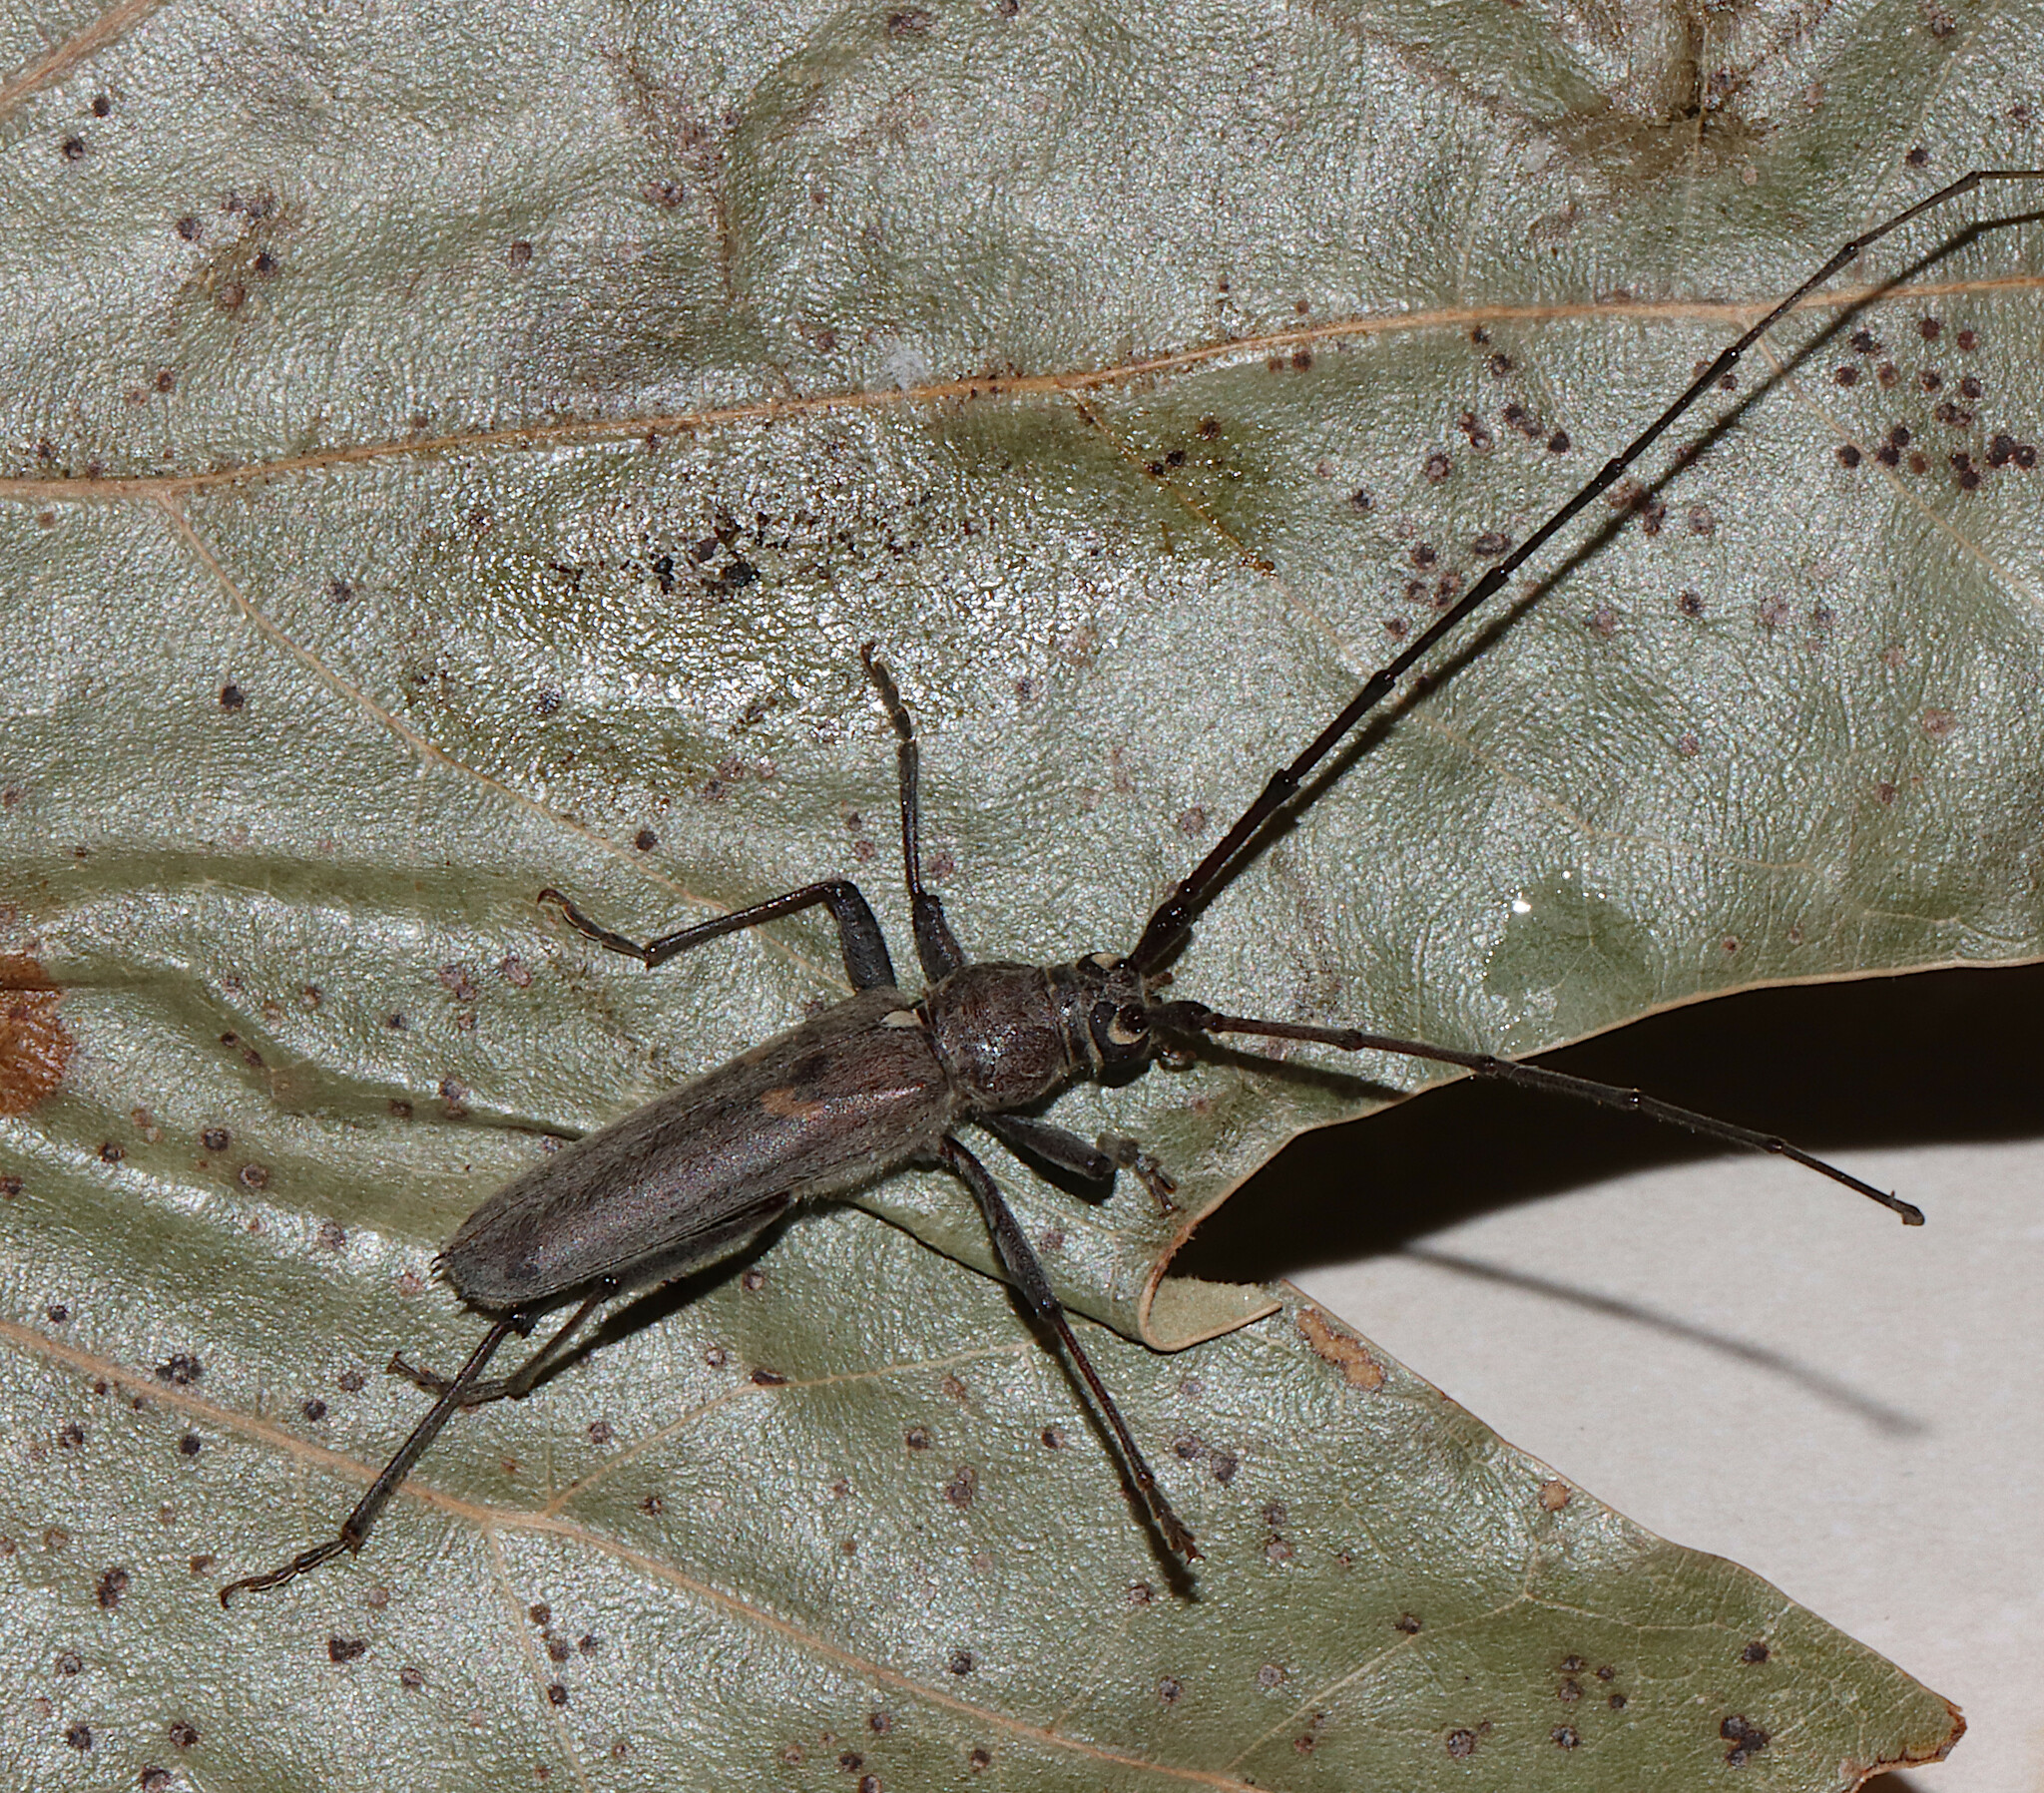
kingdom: Animalia
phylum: Arthropoda
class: Insecta
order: Coleoptera
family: Cerambycidae
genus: Knulliana
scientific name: Knulliana cincta
